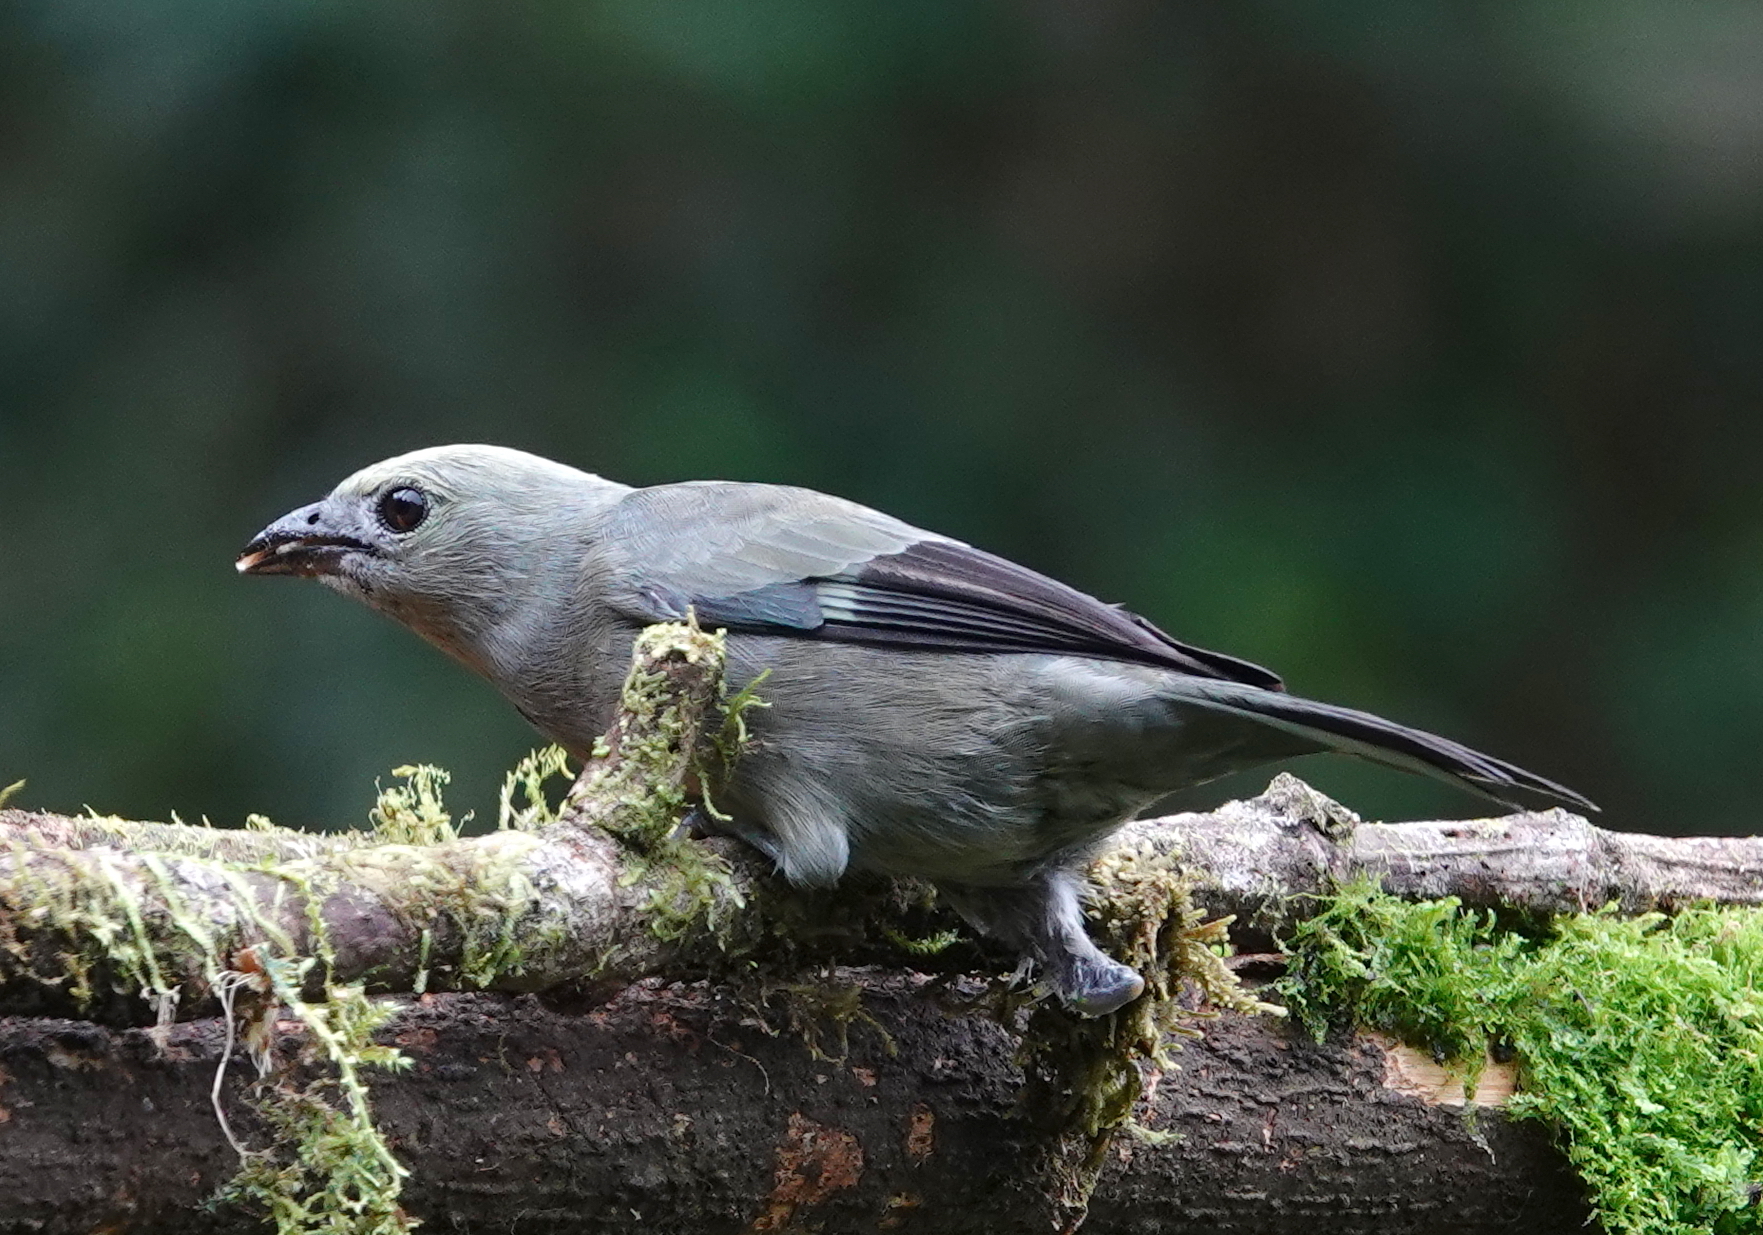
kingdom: Animalia
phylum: Chordata
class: Aves
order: Passeriformes
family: Thraupidae
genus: Thraupis
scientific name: Thraupis palmarum
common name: Palm tanager
